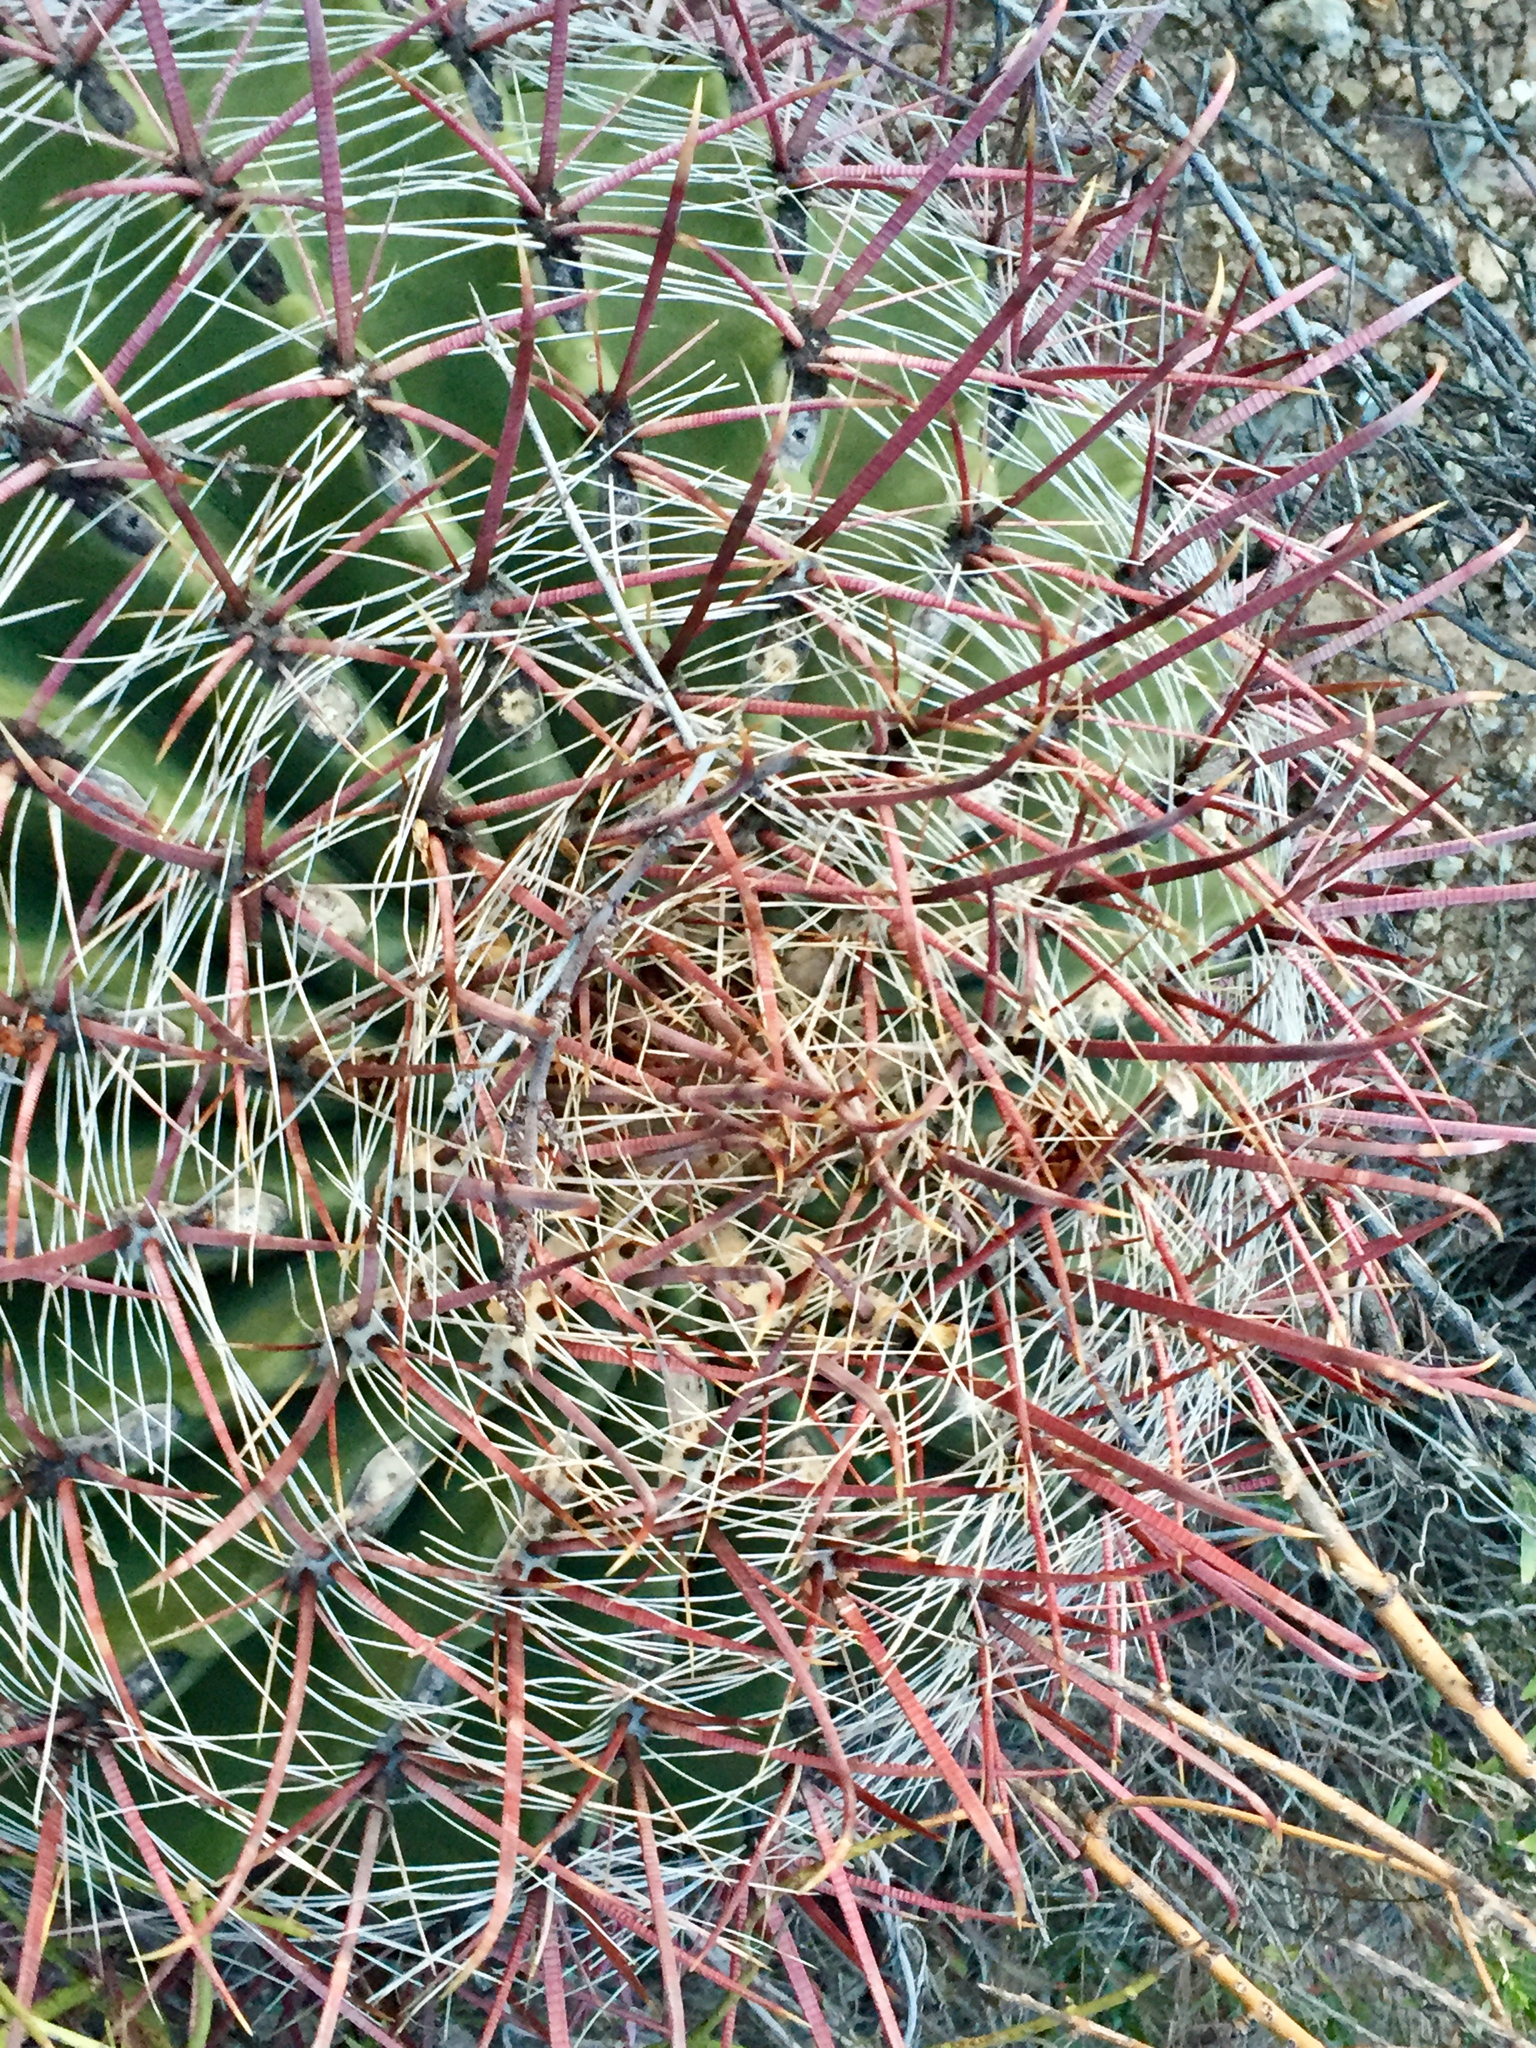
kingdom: Plantae
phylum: Tracheophyta
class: Magnoliopsida
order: Caryophyllales
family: Cactaceae
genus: Ferocactus
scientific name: Ferocactus cylindraceus
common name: California barrel cactus
